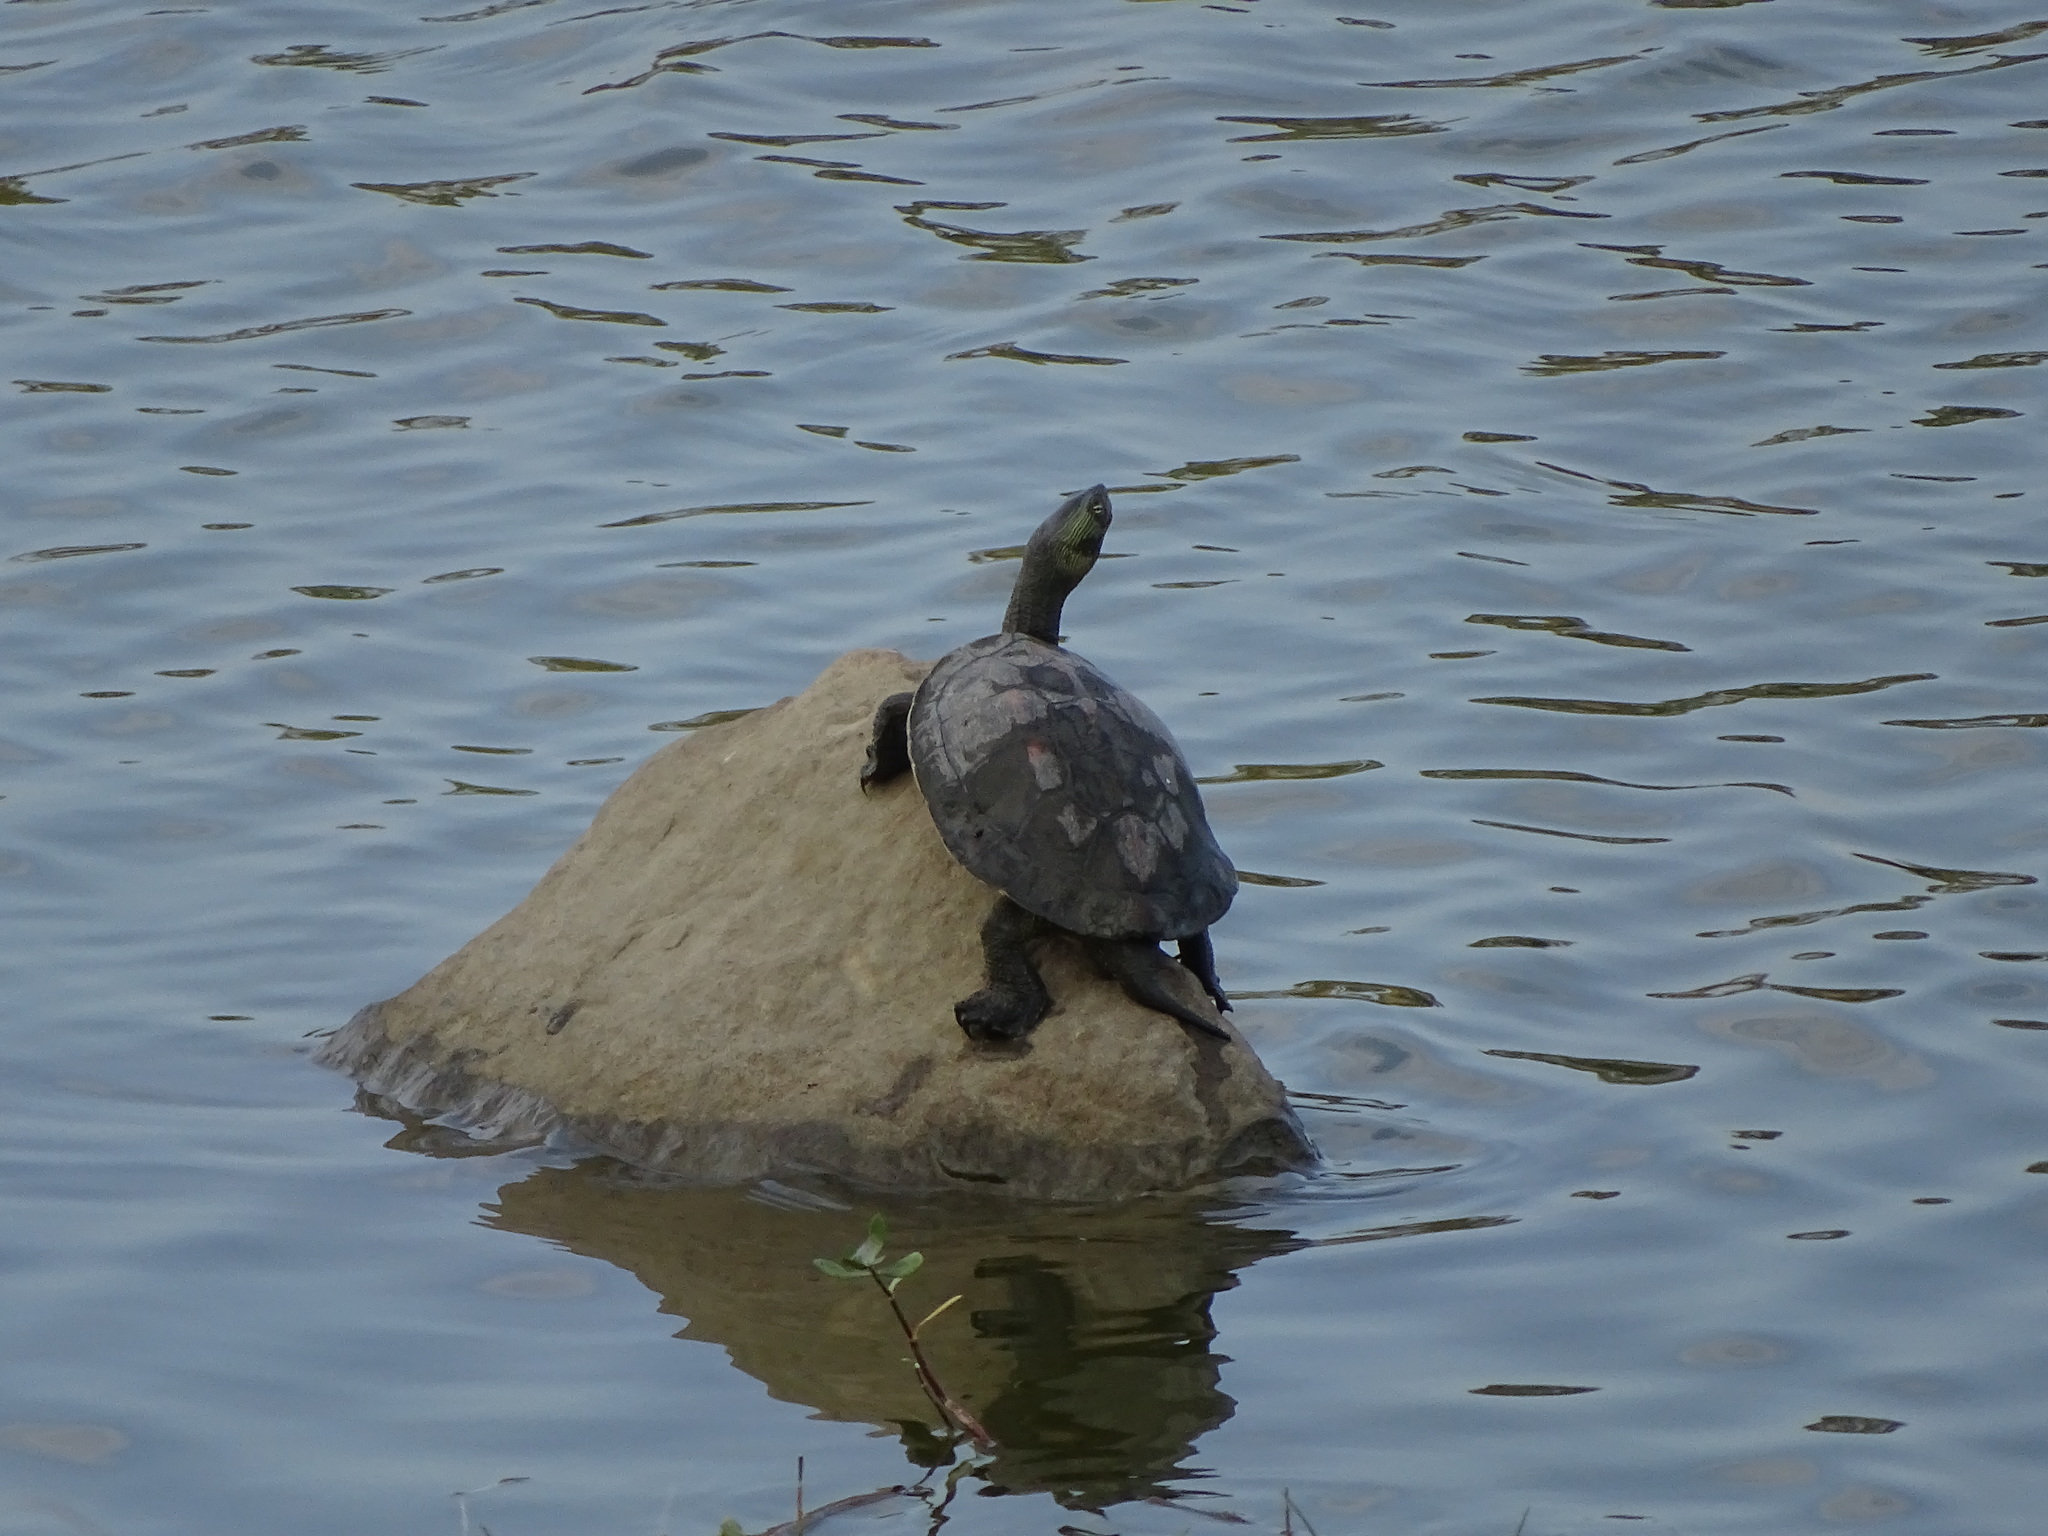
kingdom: Animalia
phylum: Chordata
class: Testudines
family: Geoemydidae
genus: Mauremys
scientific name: Mauremys sinensis
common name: Chinese stripe-necked turtle
